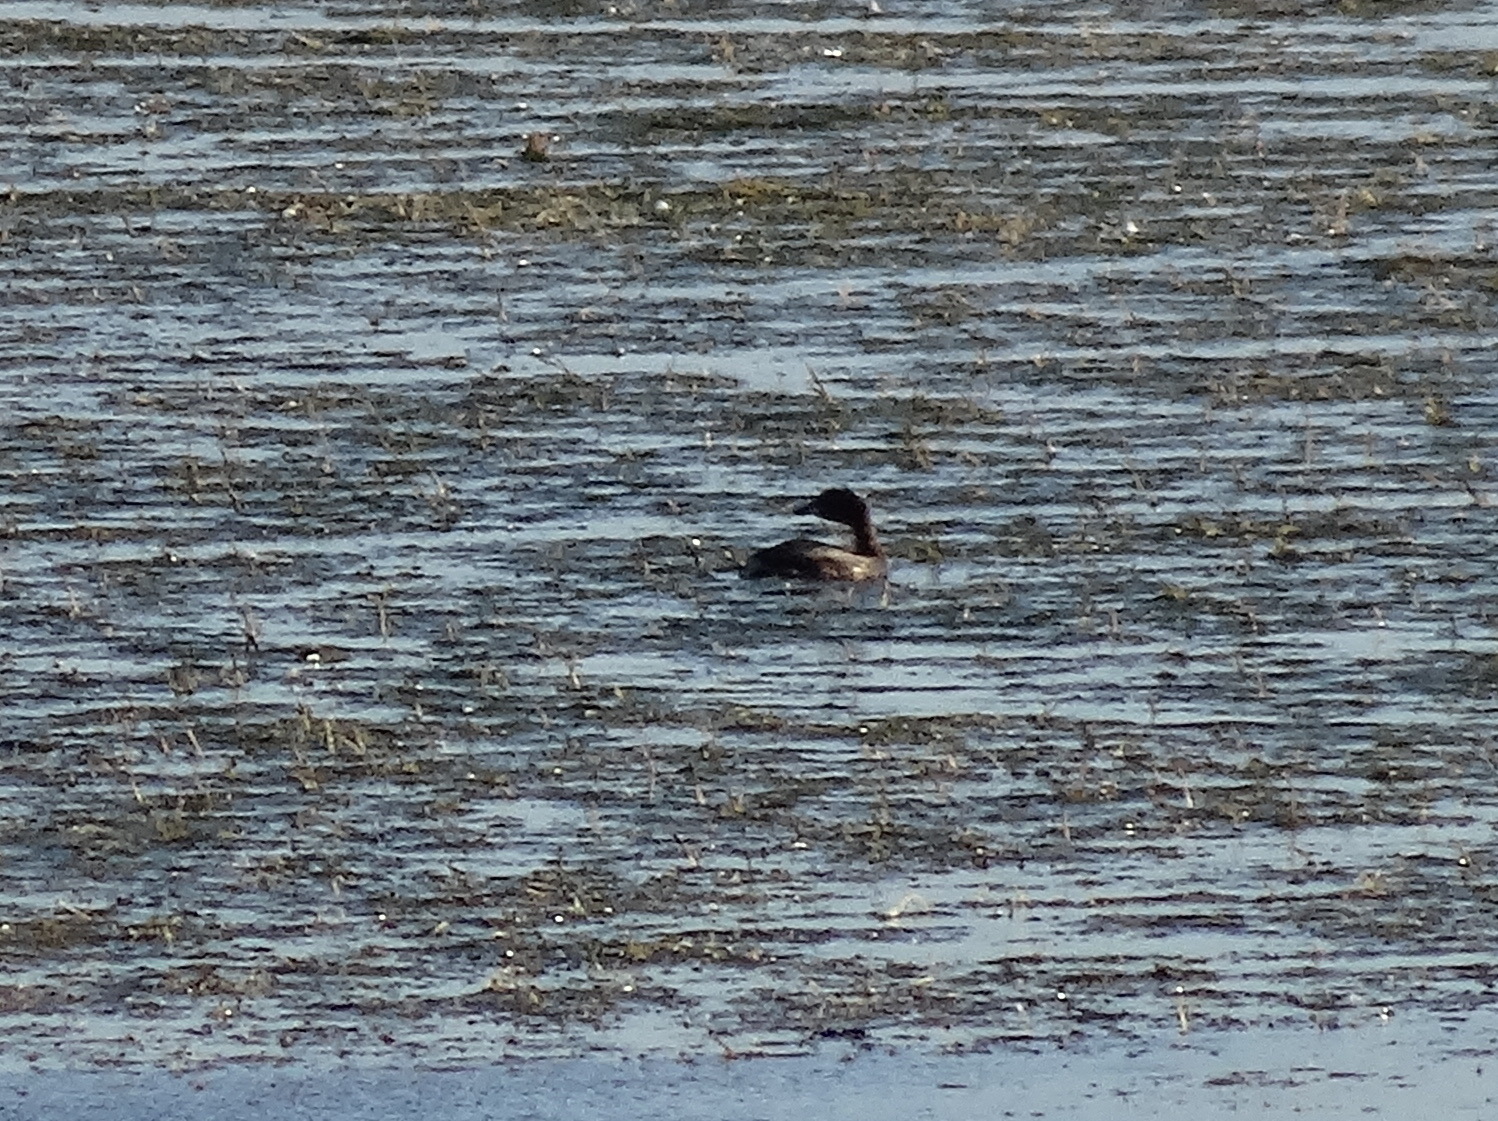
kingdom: Animalia
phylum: Chordata
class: Aves
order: Podicipediformes
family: Podicipedidae
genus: Tachybaptus
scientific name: Tachybaptus ruficollis
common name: Little grebe
